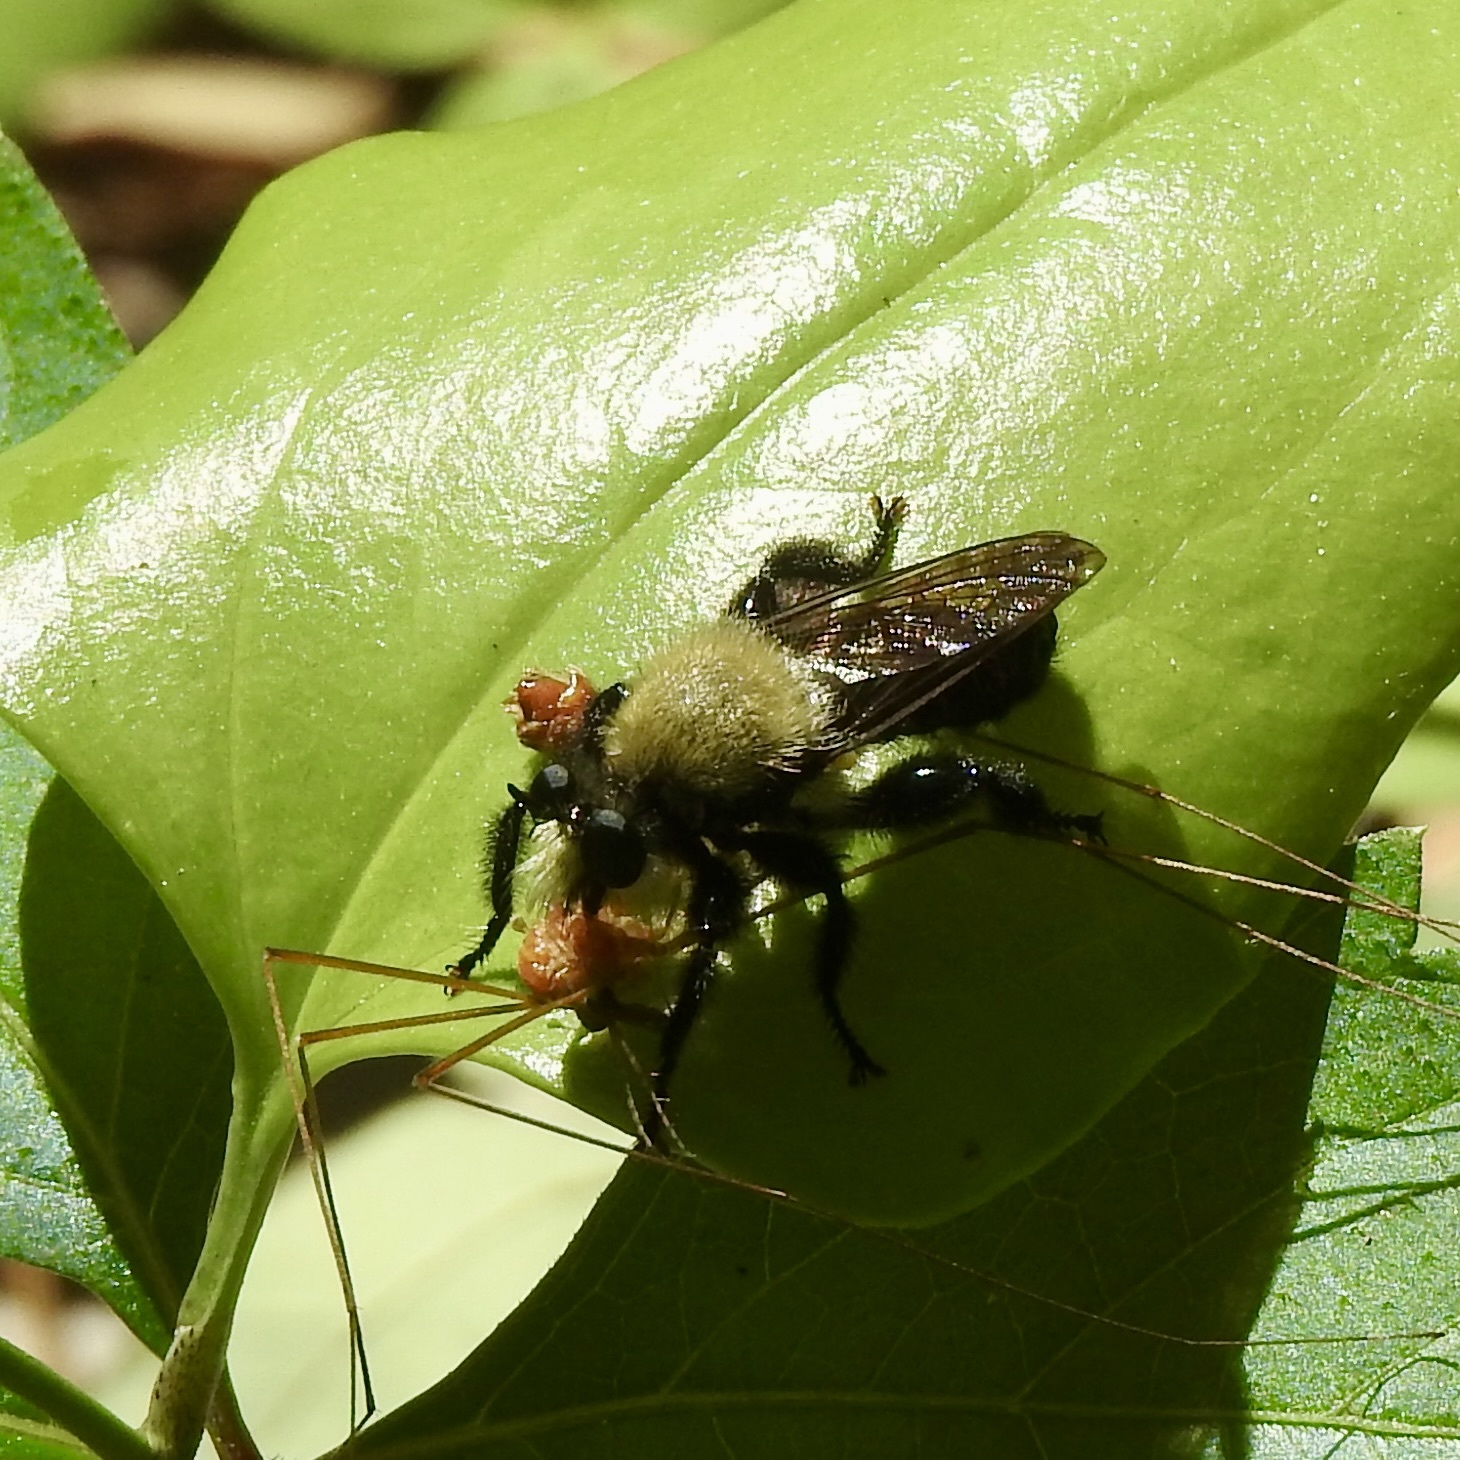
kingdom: Animalia
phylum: Arthropoda
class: Insecta
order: Diptera
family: Asilidae
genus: Laphria
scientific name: Laphria flavicollis
